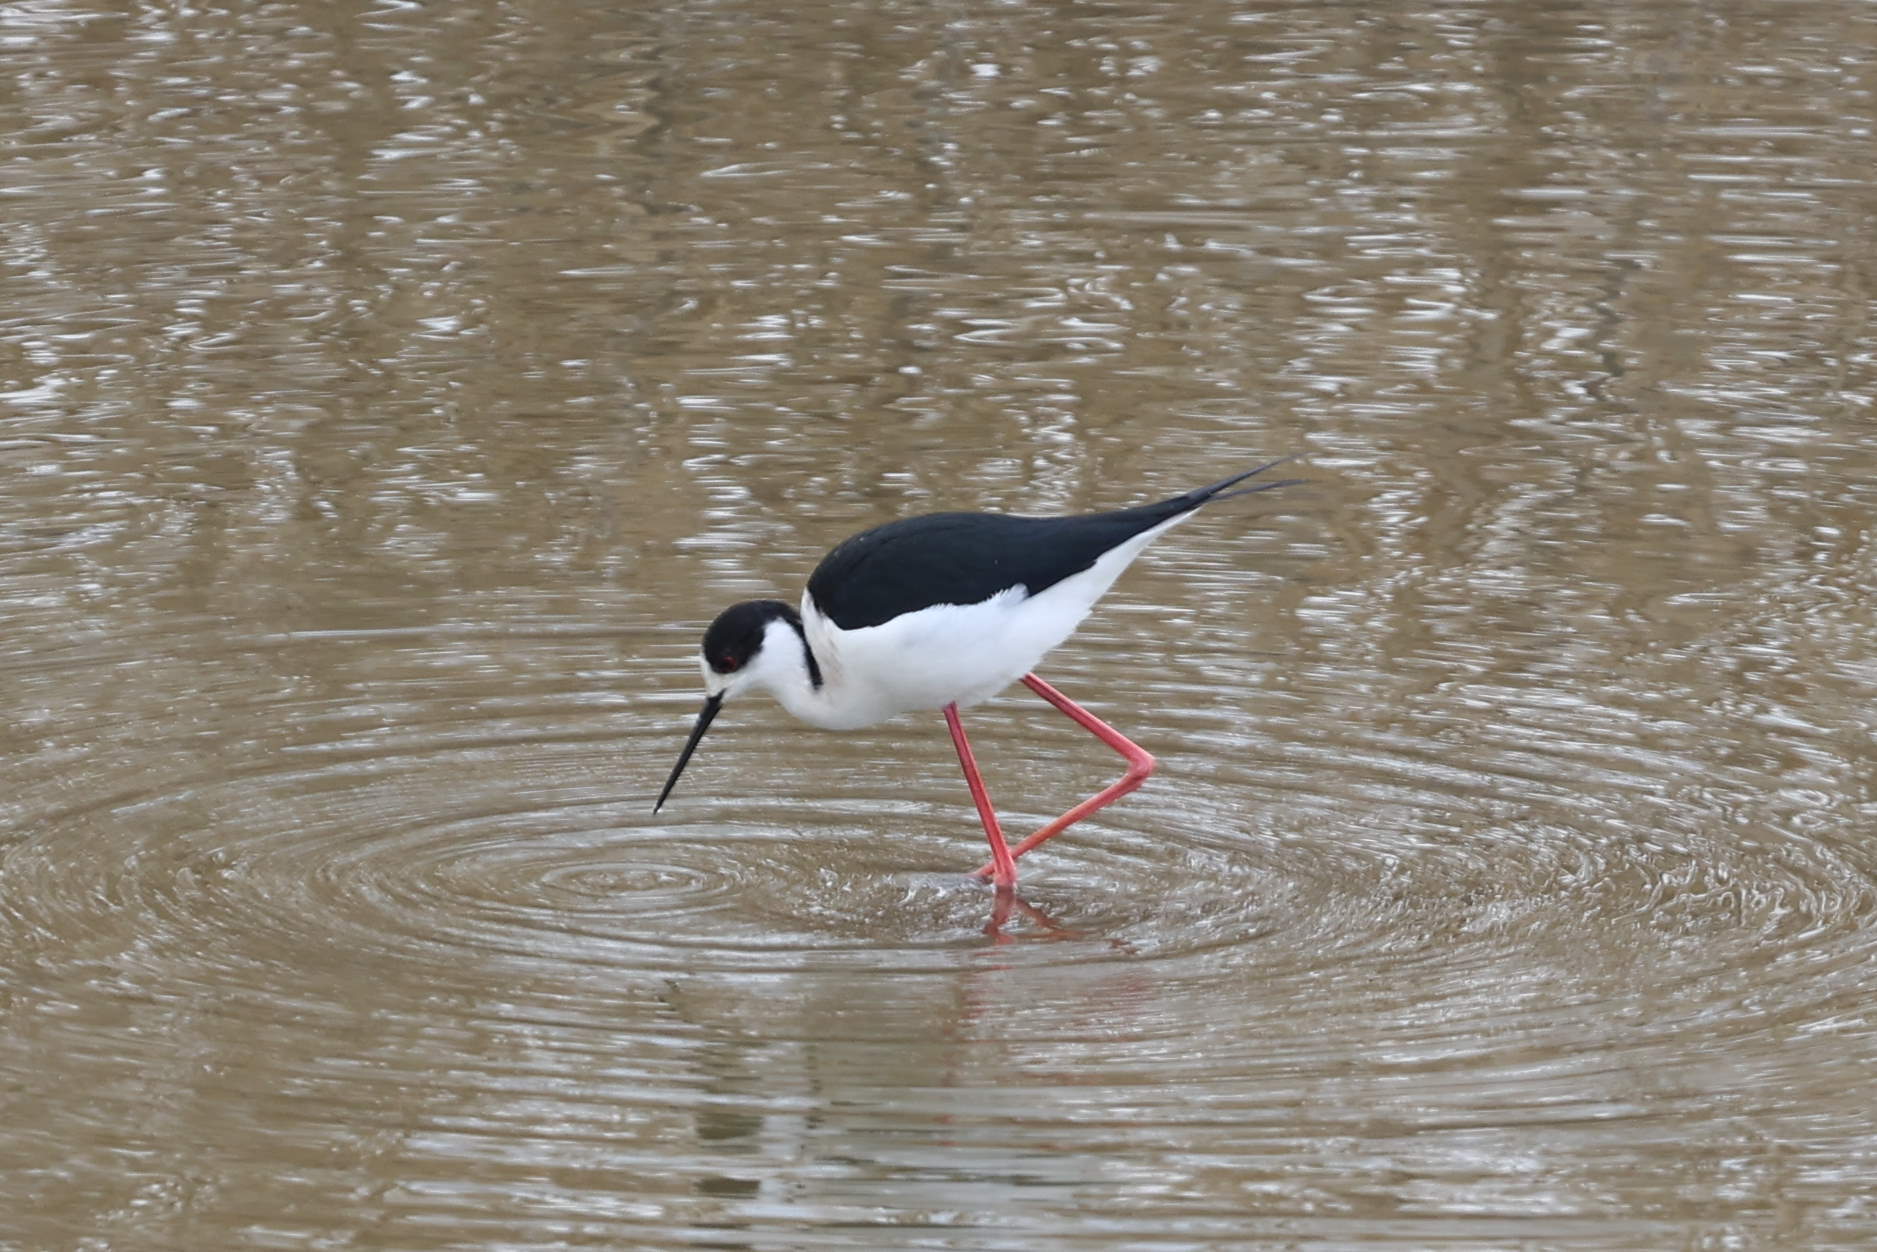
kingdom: Animalia
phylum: Chordata
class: Aves
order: Charadriiformes
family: Recurvirostridae
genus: Himantopus
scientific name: Himantopus himantopus
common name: Black-winged stilt
